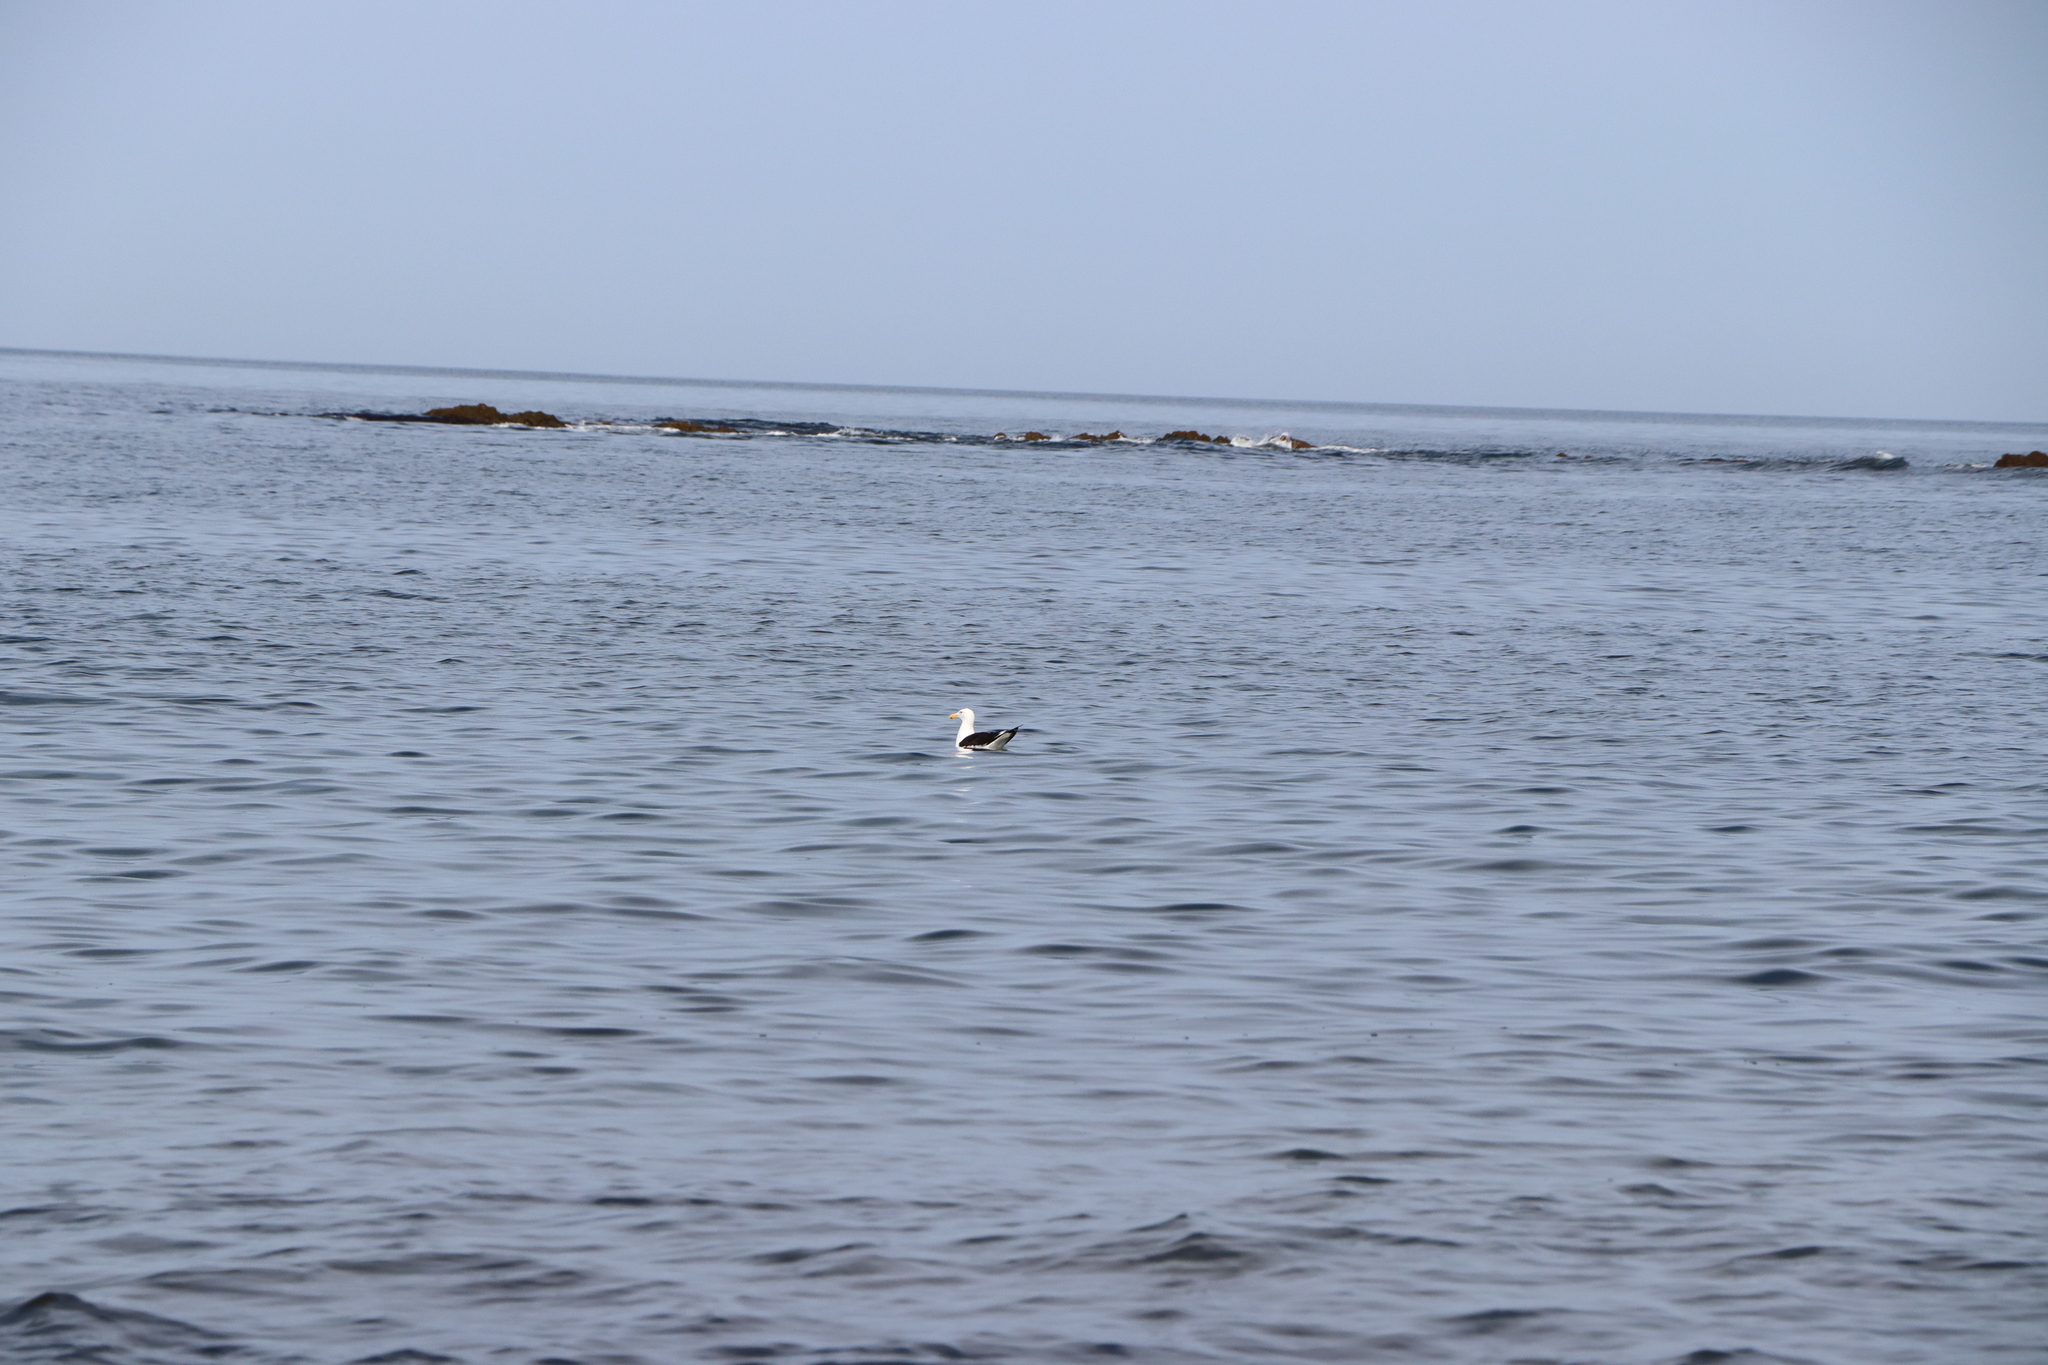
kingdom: Animalia
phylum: Chordata
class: Aves
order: Charadriiformes
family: Laridae
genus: Larus
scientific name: Larus dominicanus
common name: Kelp gull
